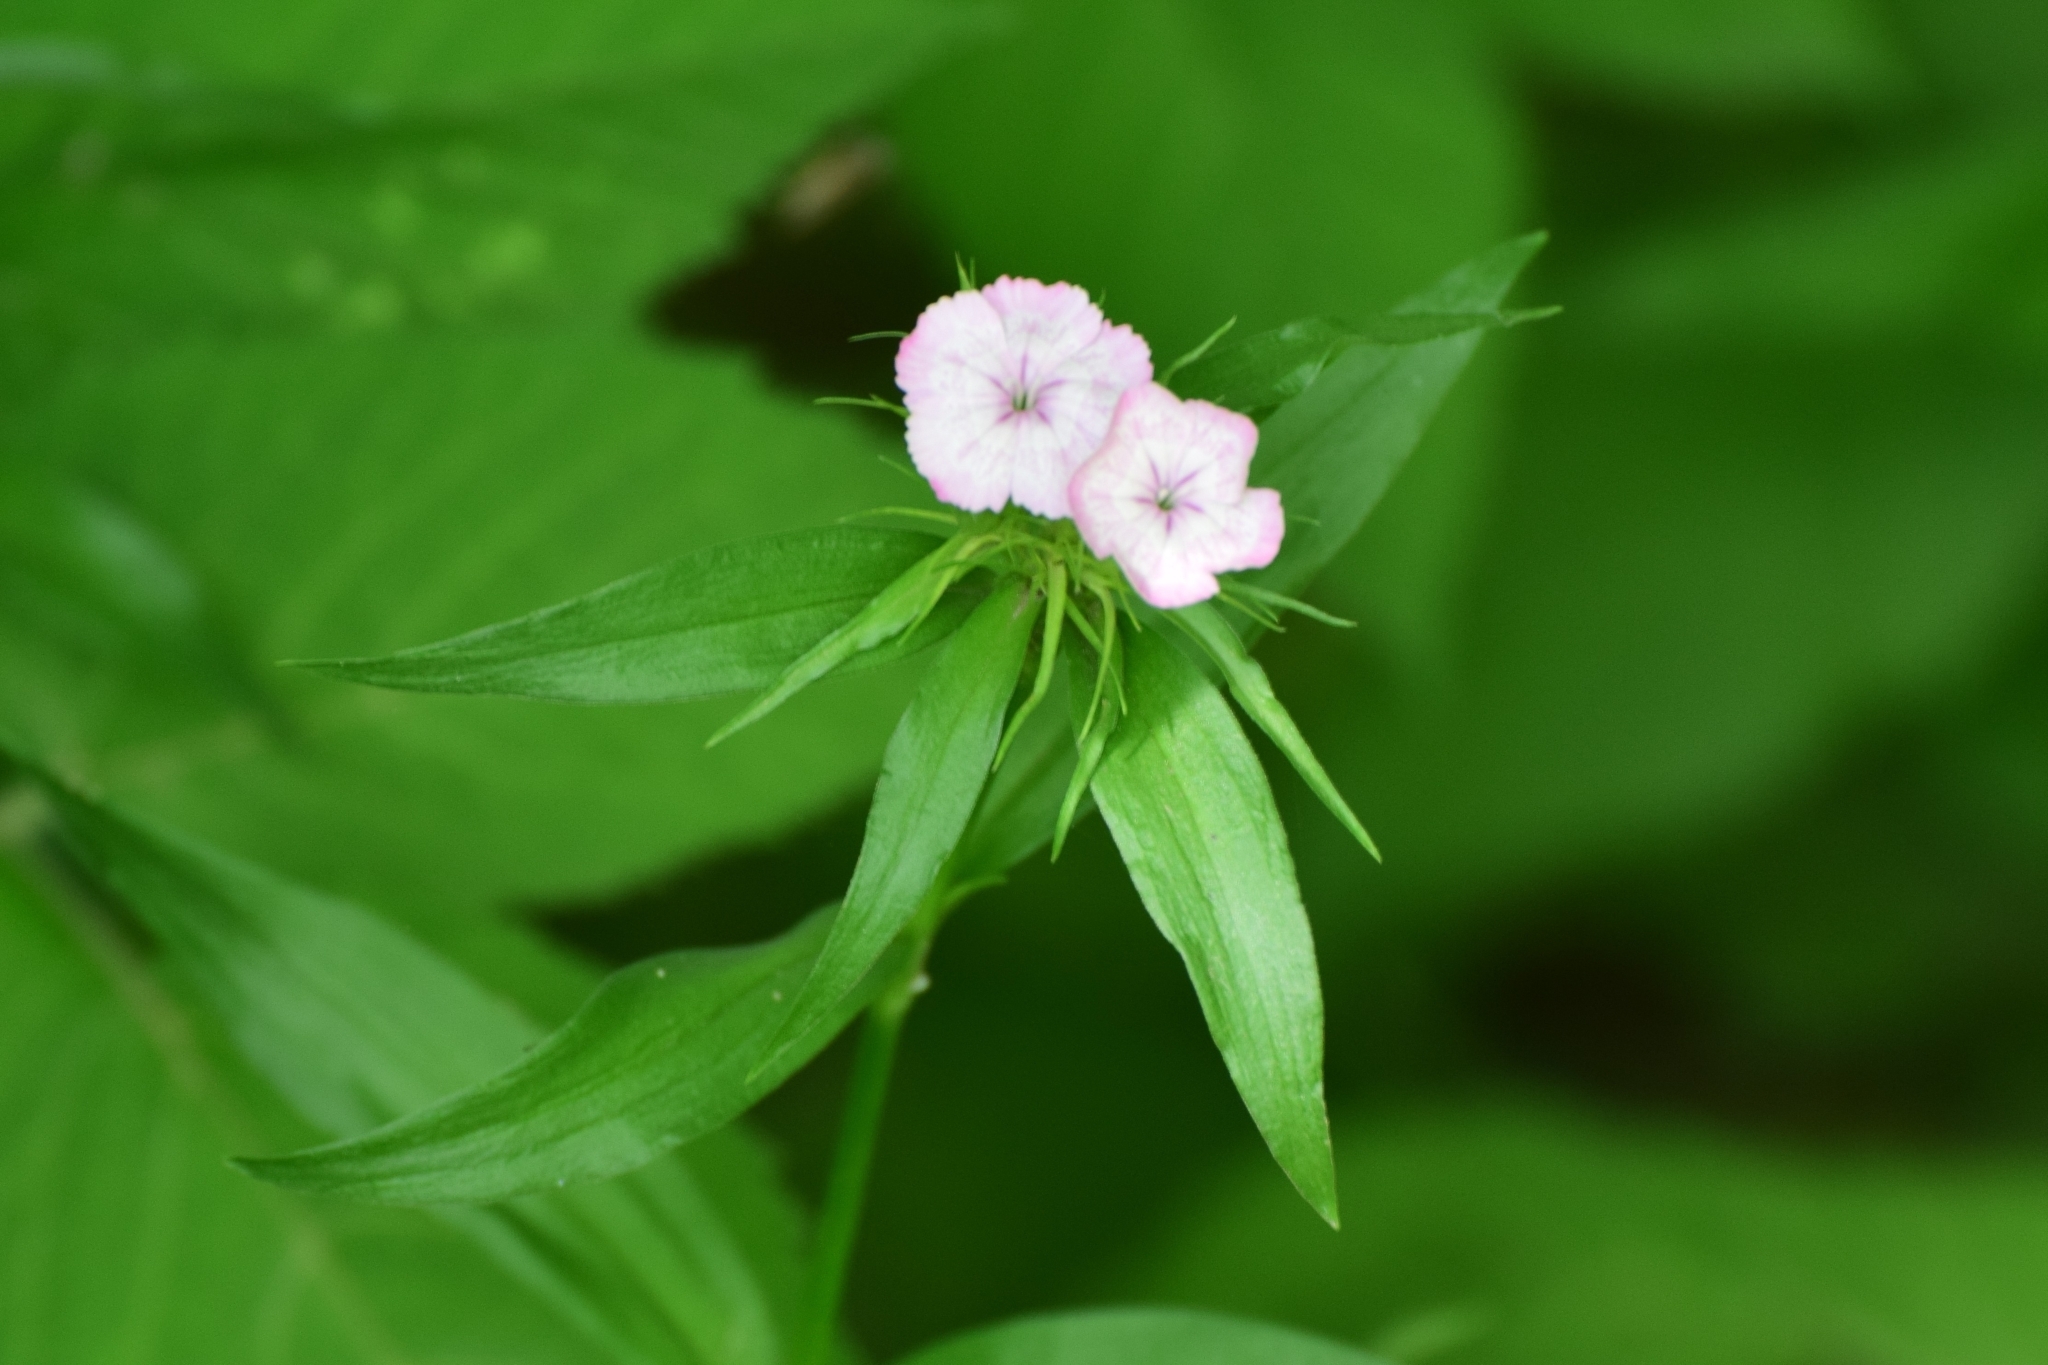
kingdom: Plantae
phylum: Tracheophyta
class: Magnoliopsida
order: Caryophyllales
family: Caryophyllaceae
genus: Dianthus
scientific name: Dianthus barbatus
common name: Sweet-william
